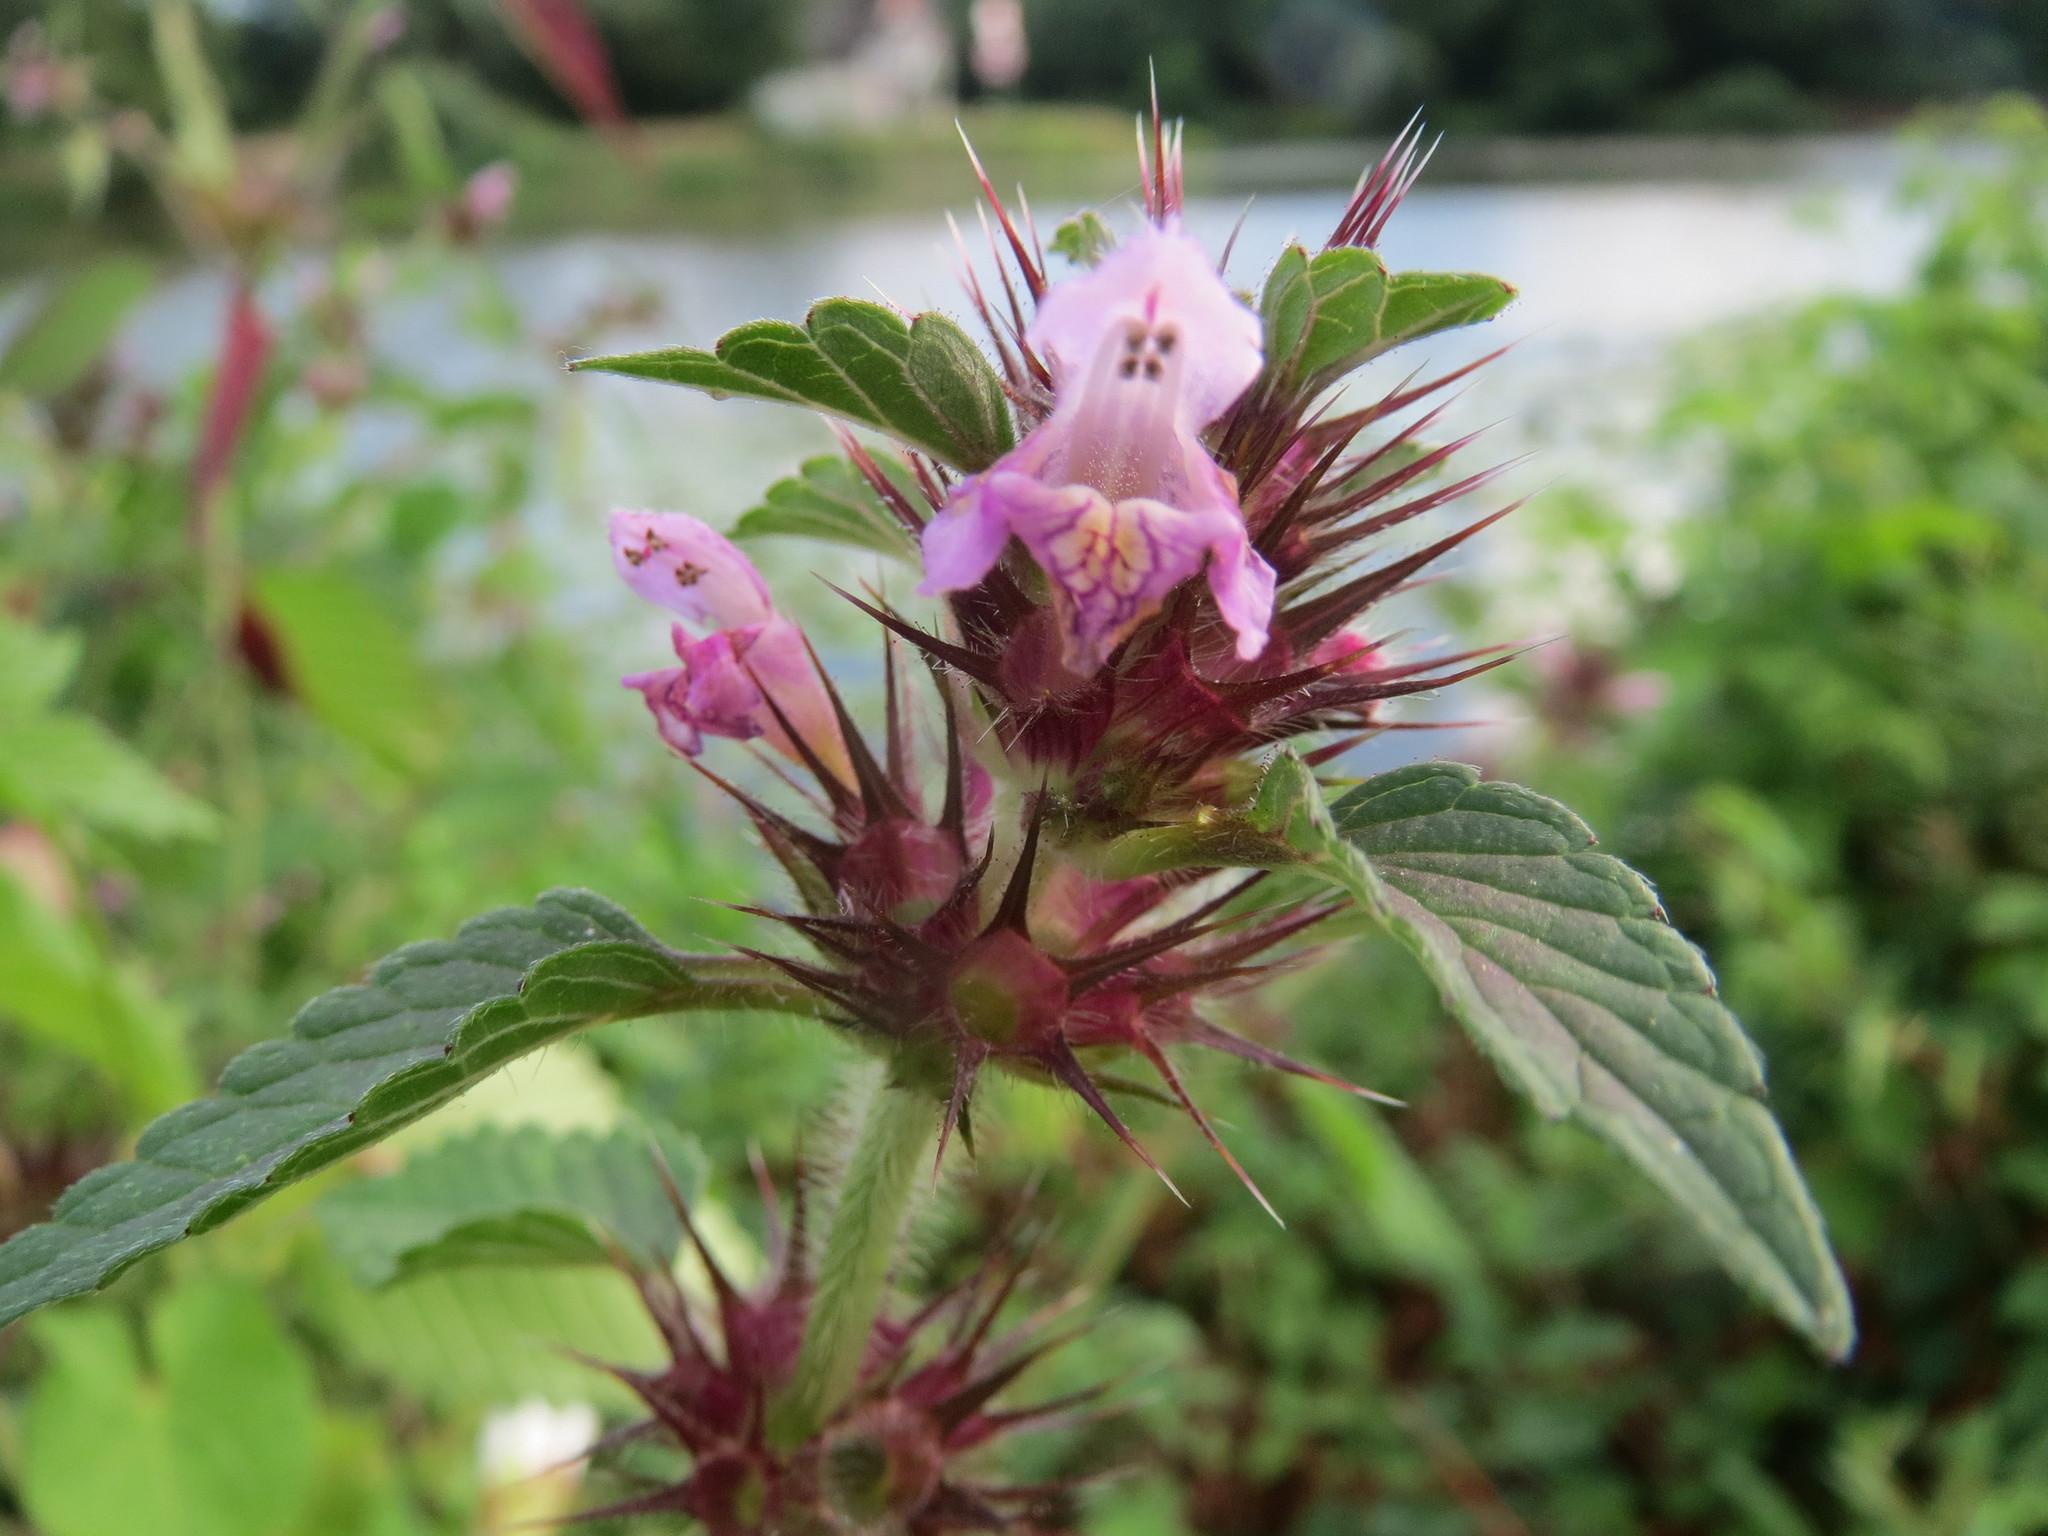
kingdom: Plantae
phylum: Tracheophyta
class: Magnoliopsida
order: Lamiales
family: Lamiaceae
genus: Galeopsis
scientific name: Galeopsis tetrahit
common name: Common hemp-nettle
